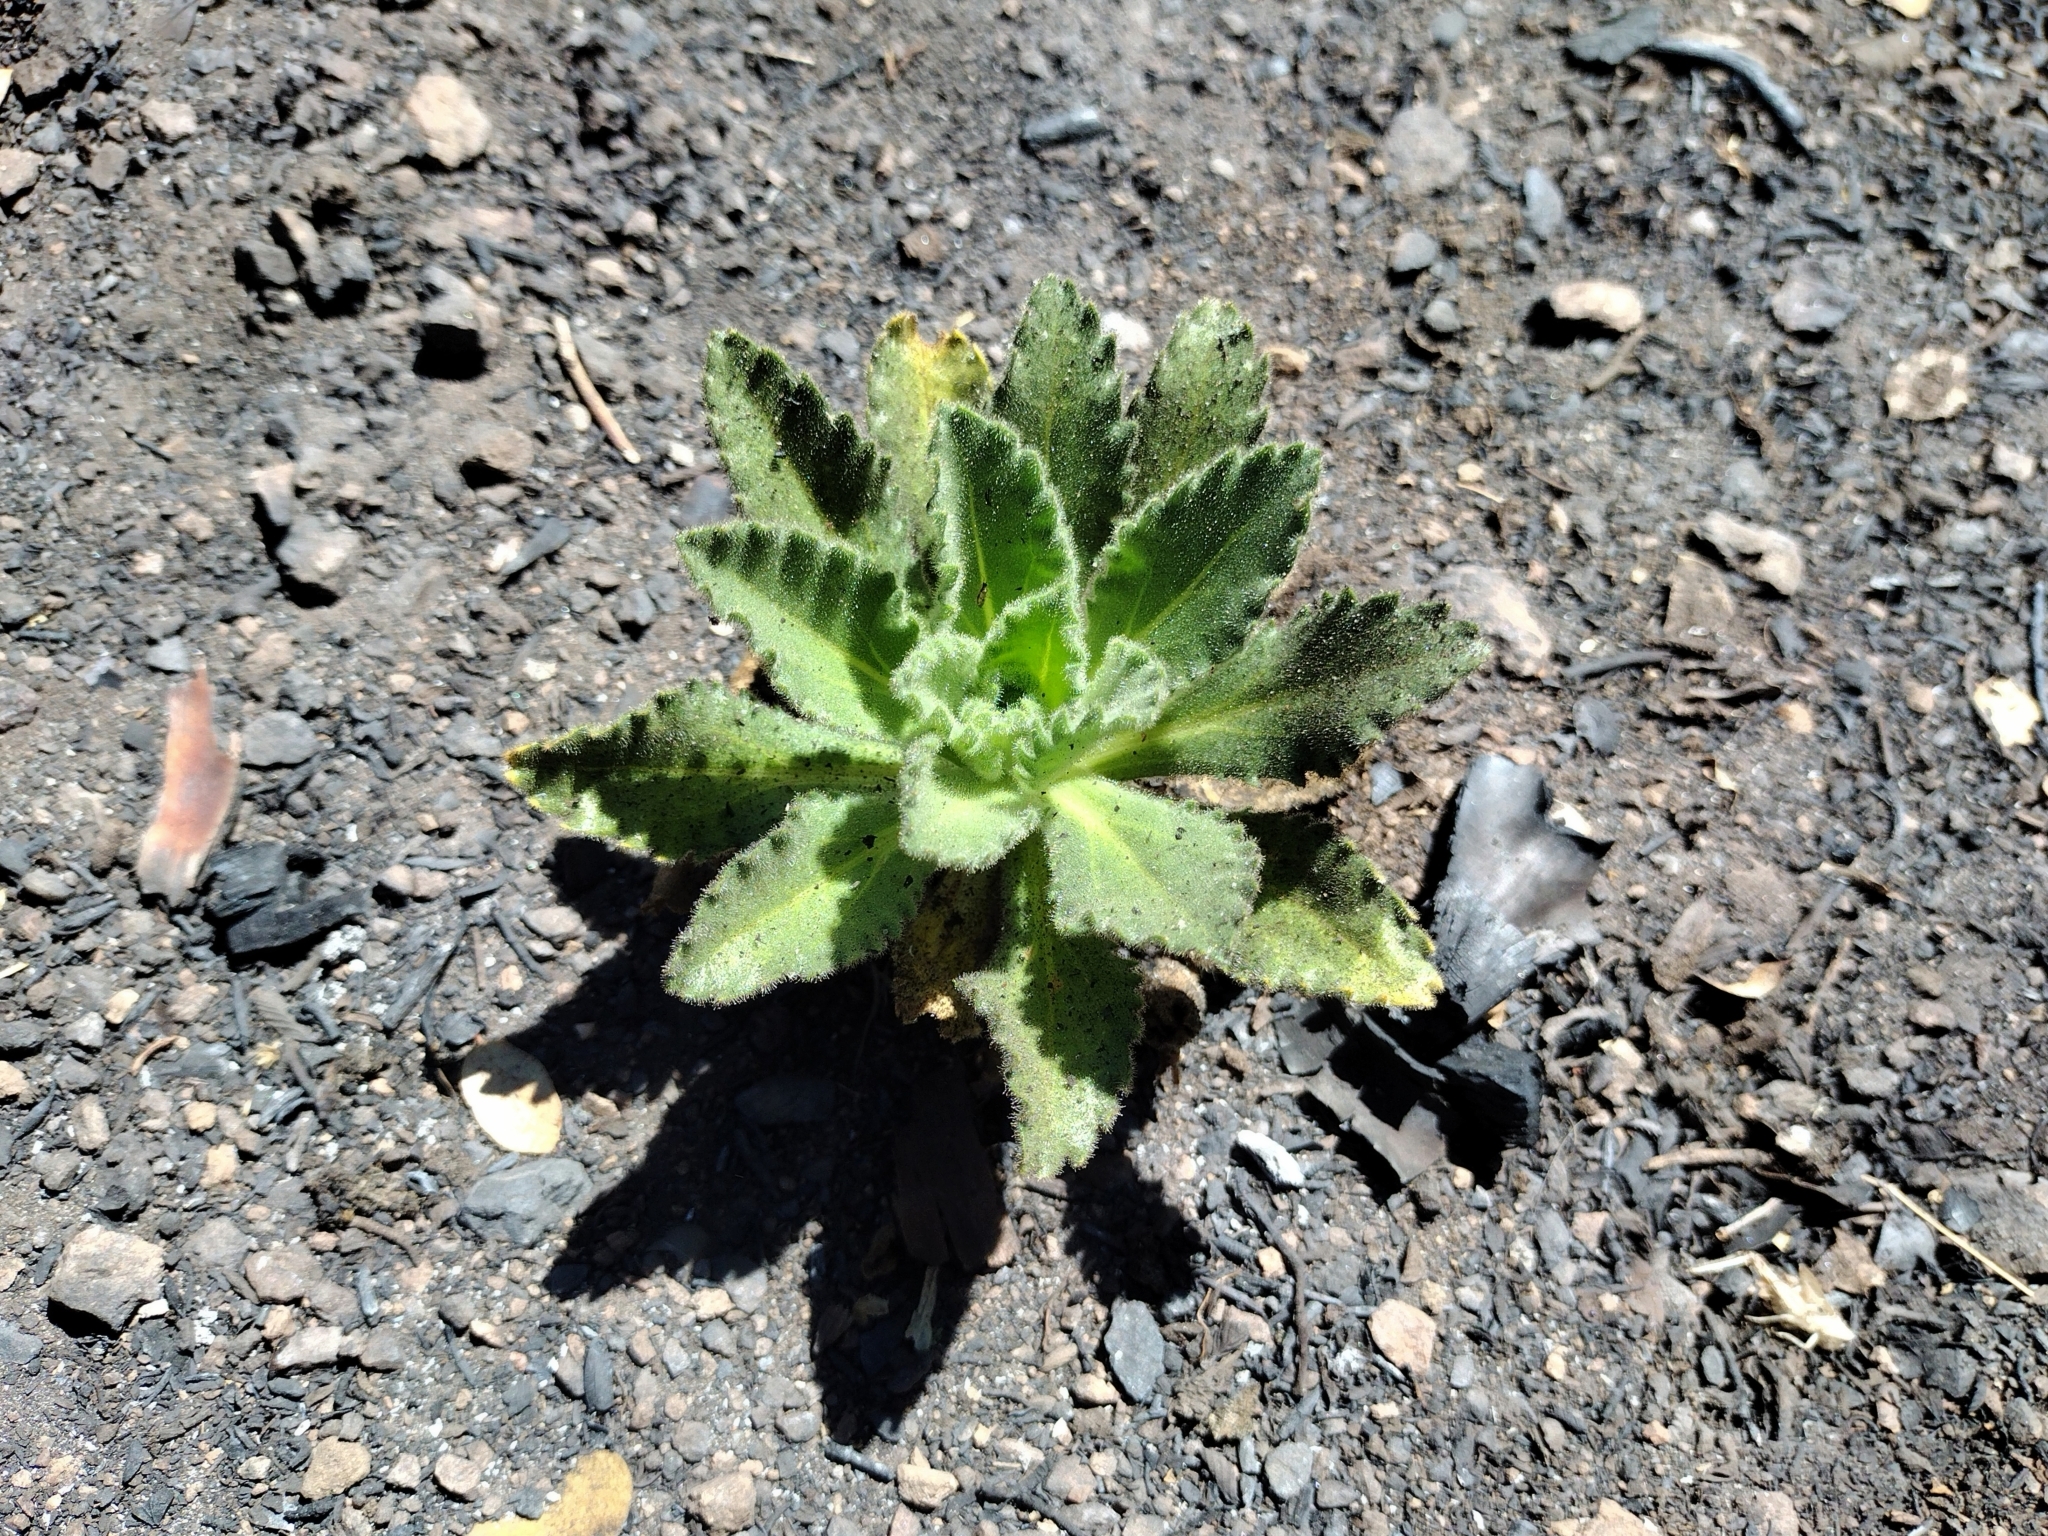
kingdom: Plantae
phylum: Tracheophyta
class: Magnoliopsida
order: Asterales
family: Asteraceae
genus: Hulsea
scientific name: Hulsea heterochroma
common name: Redray alpinegold
